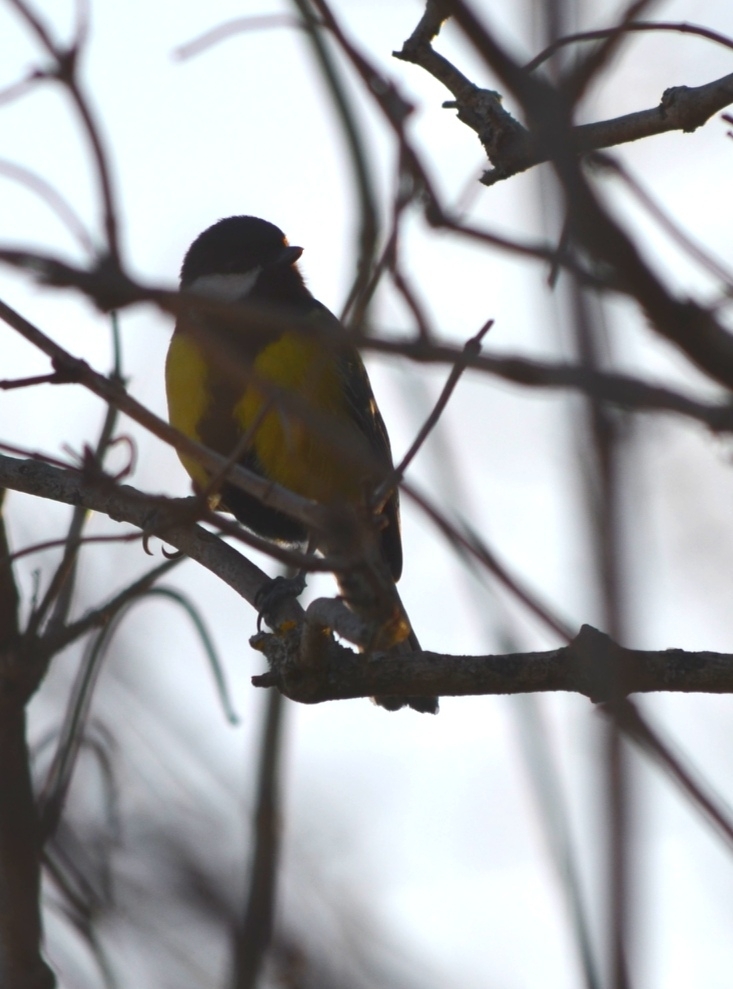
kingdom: Animalia
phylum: Chordata
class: Aves
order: Passeriformes
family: Paridae
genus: Parus
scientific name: Parus major
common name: Great tit
